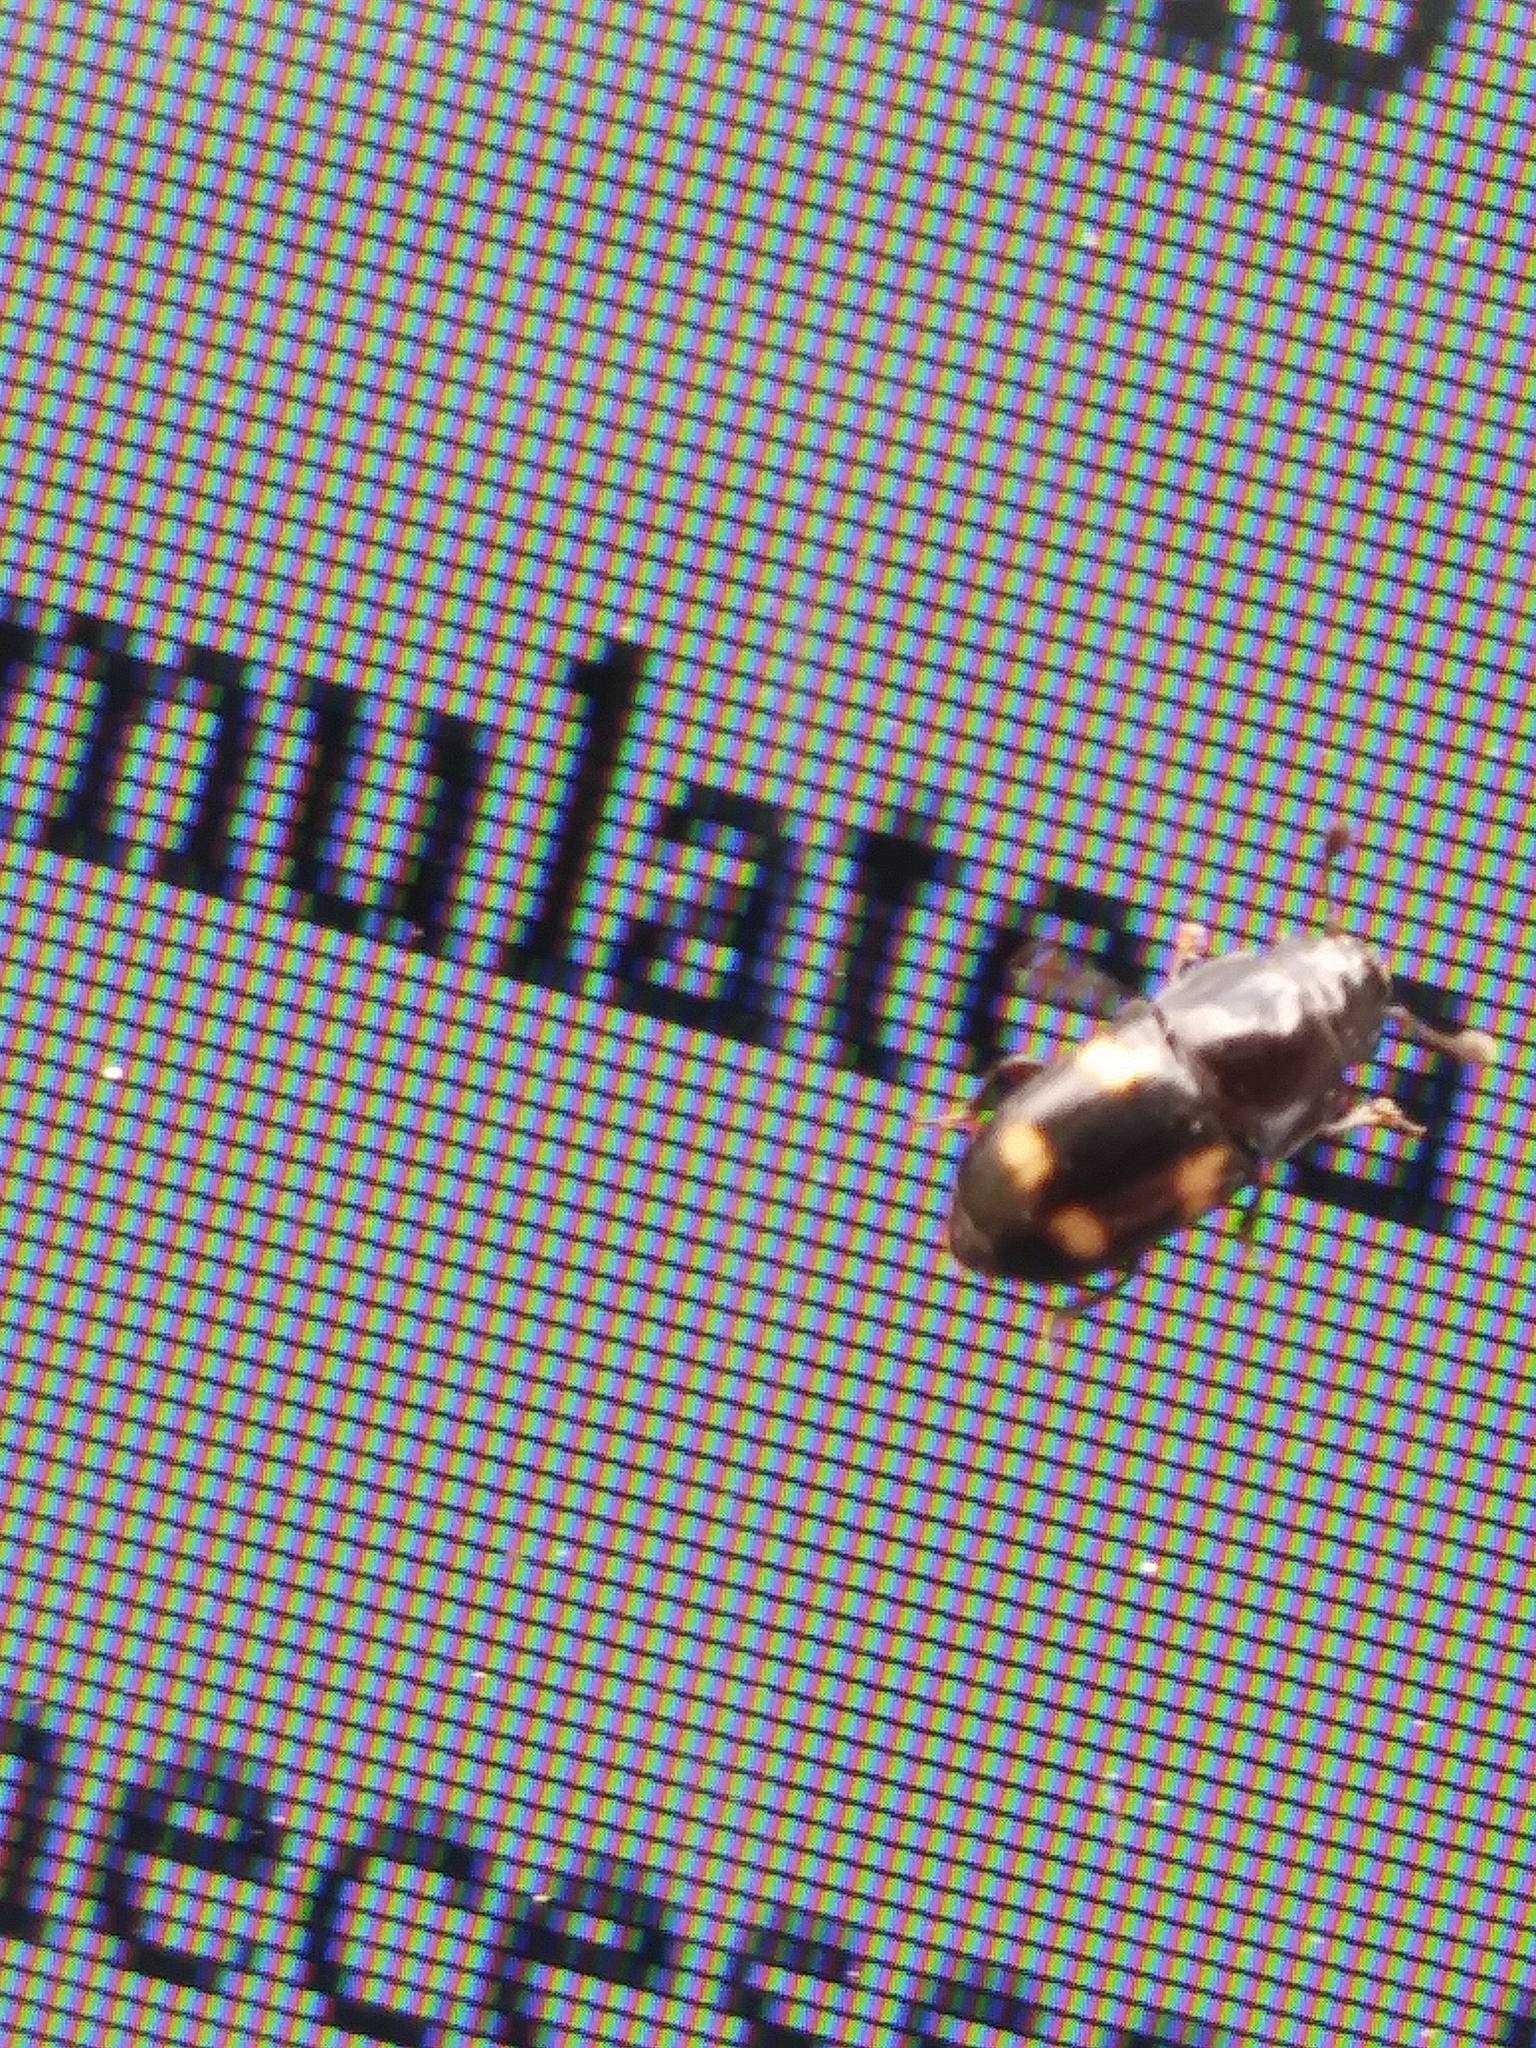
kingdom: Animalia
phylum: Arthropoda
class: Insecta
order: Coleoptera
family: Nitidulidae
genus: Glischrochilus
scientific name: Glischrochilus quadrisignatus
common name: Picnic beetle
